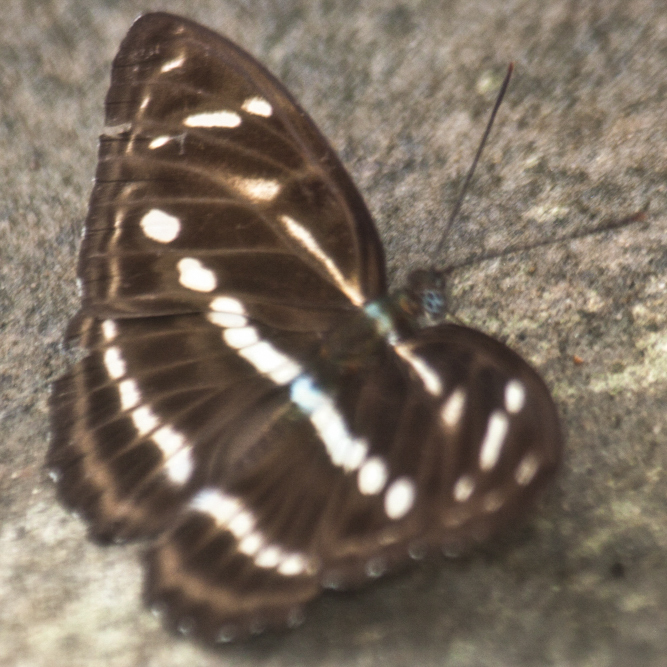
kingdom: Animalia
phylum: Arthropoda
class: Insecta
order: Lepidoptera
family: Nymphalidae
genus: Parathyma
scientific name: Parathyma kanwa
